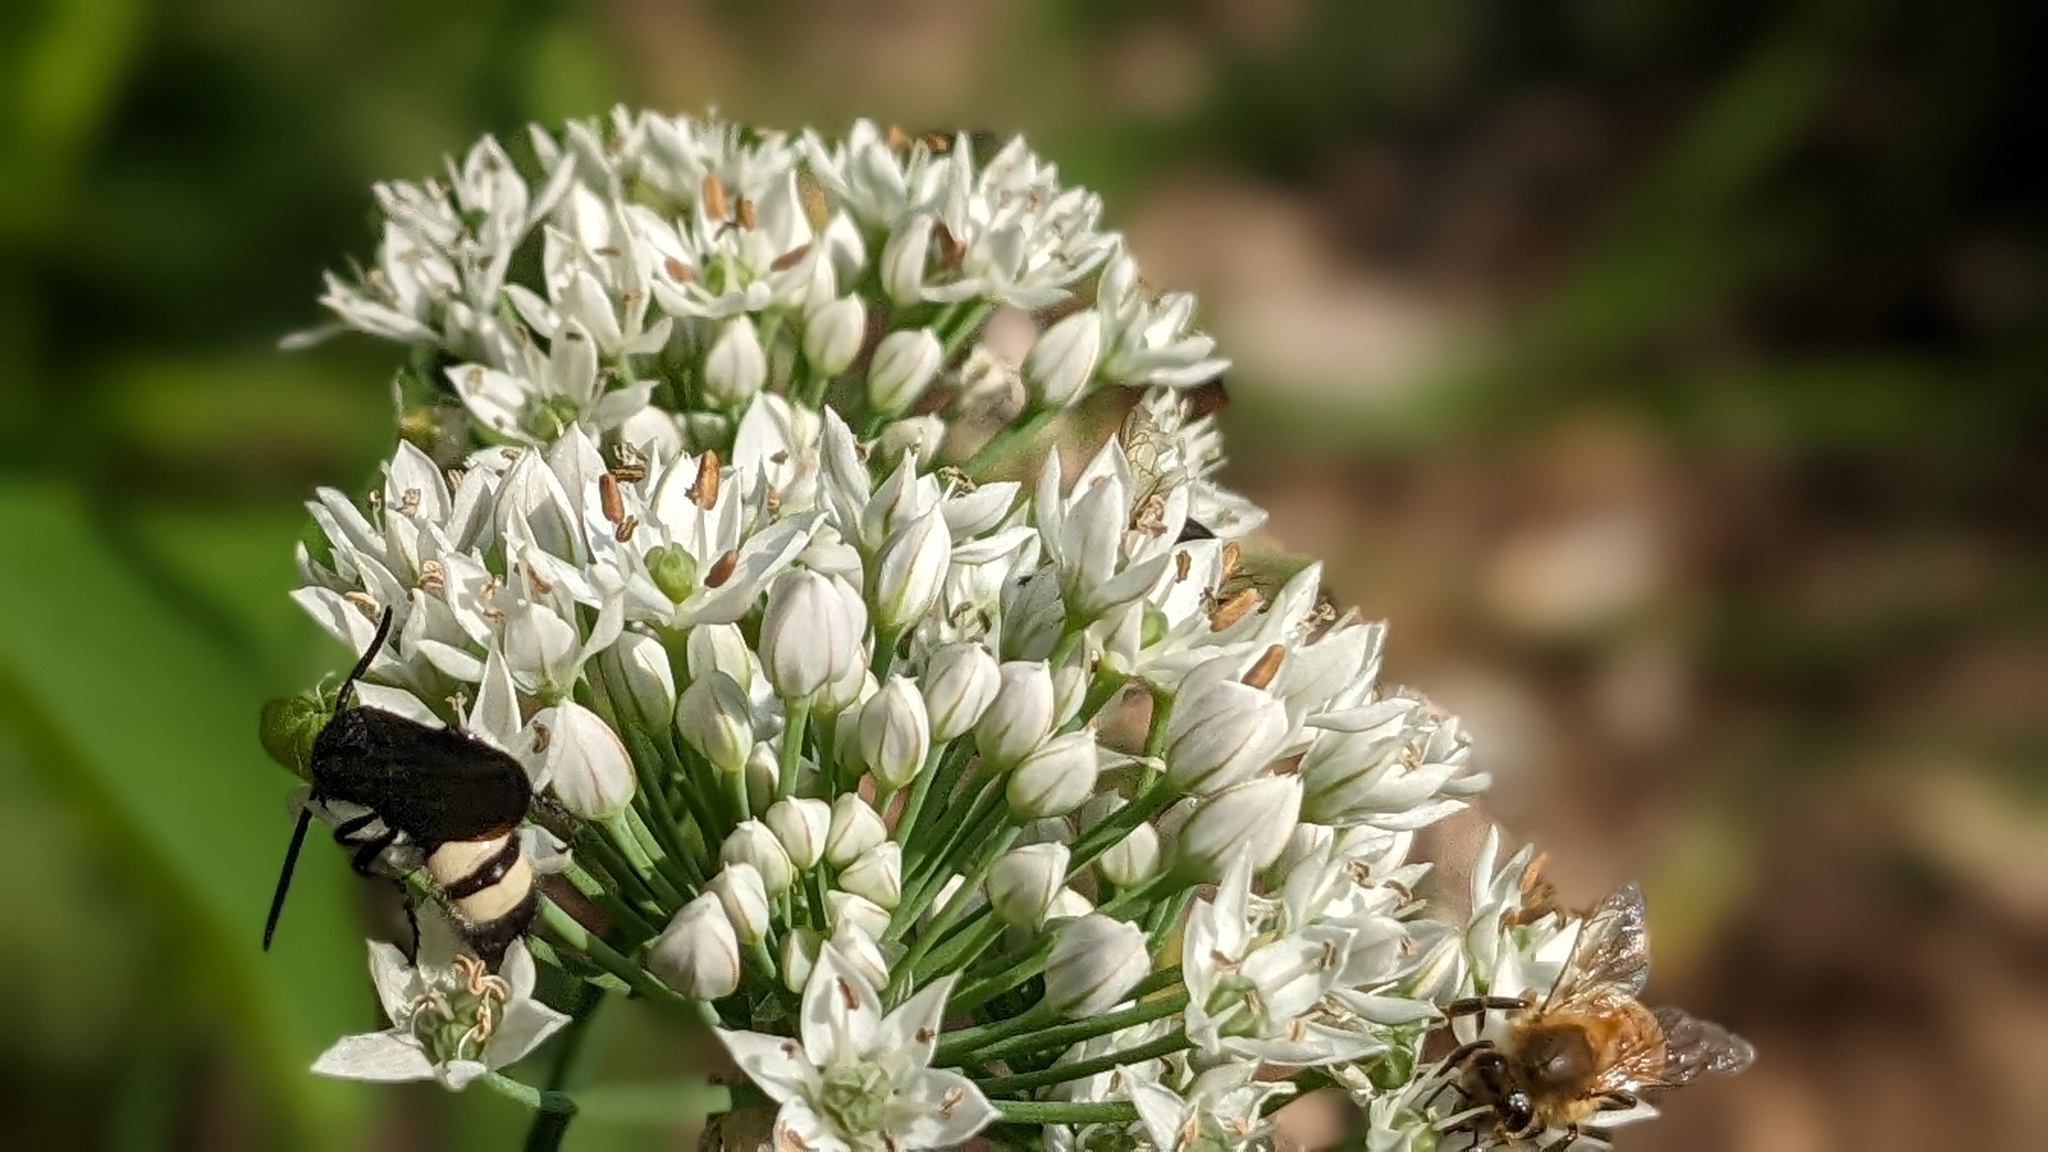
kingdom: Animalia
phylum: Arthropoda
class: Insecta
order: Hymenoptera
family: Scoliidae
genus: Scolia
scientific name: Scolia bicincta
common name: Double-banded scoliid wasp
